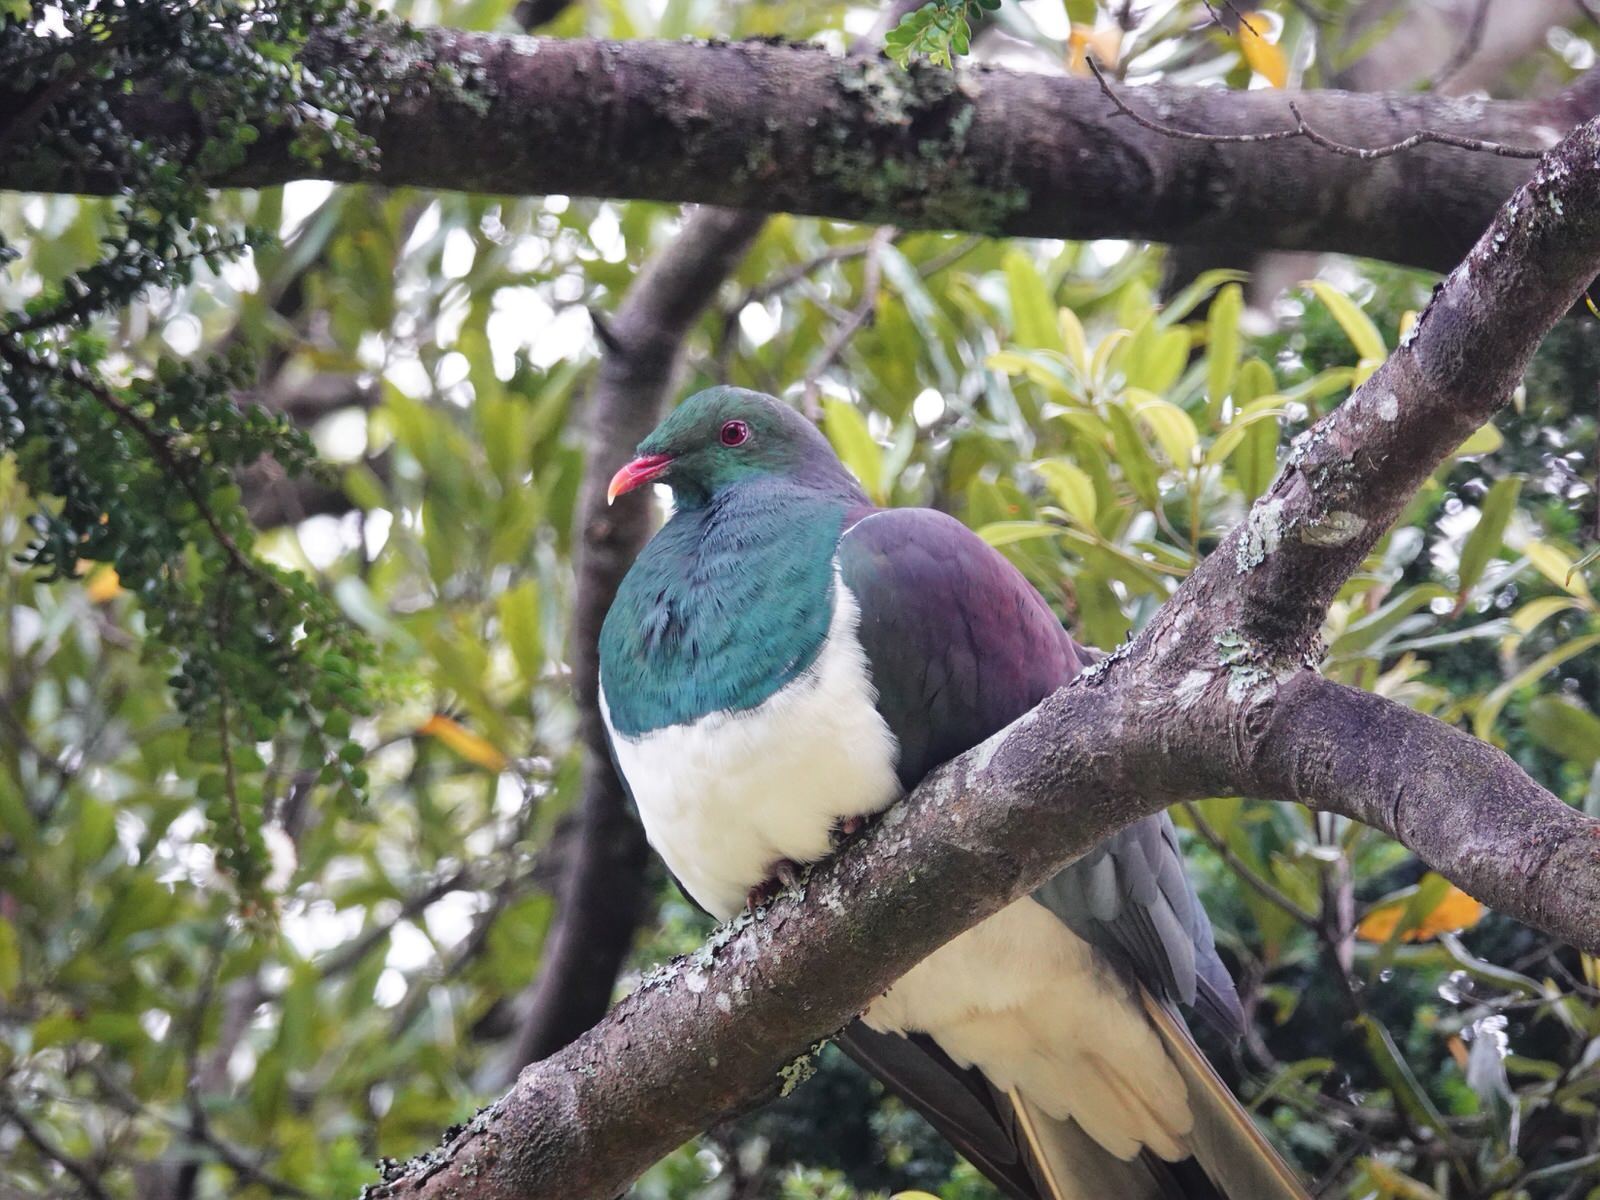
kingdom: Animalia
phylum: Chordata
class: Aves
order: Columbiformes
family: Columbidae
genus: Hemiphaga
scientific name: Hemiphaga novaeseelandiae
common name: New zealand pigeon
